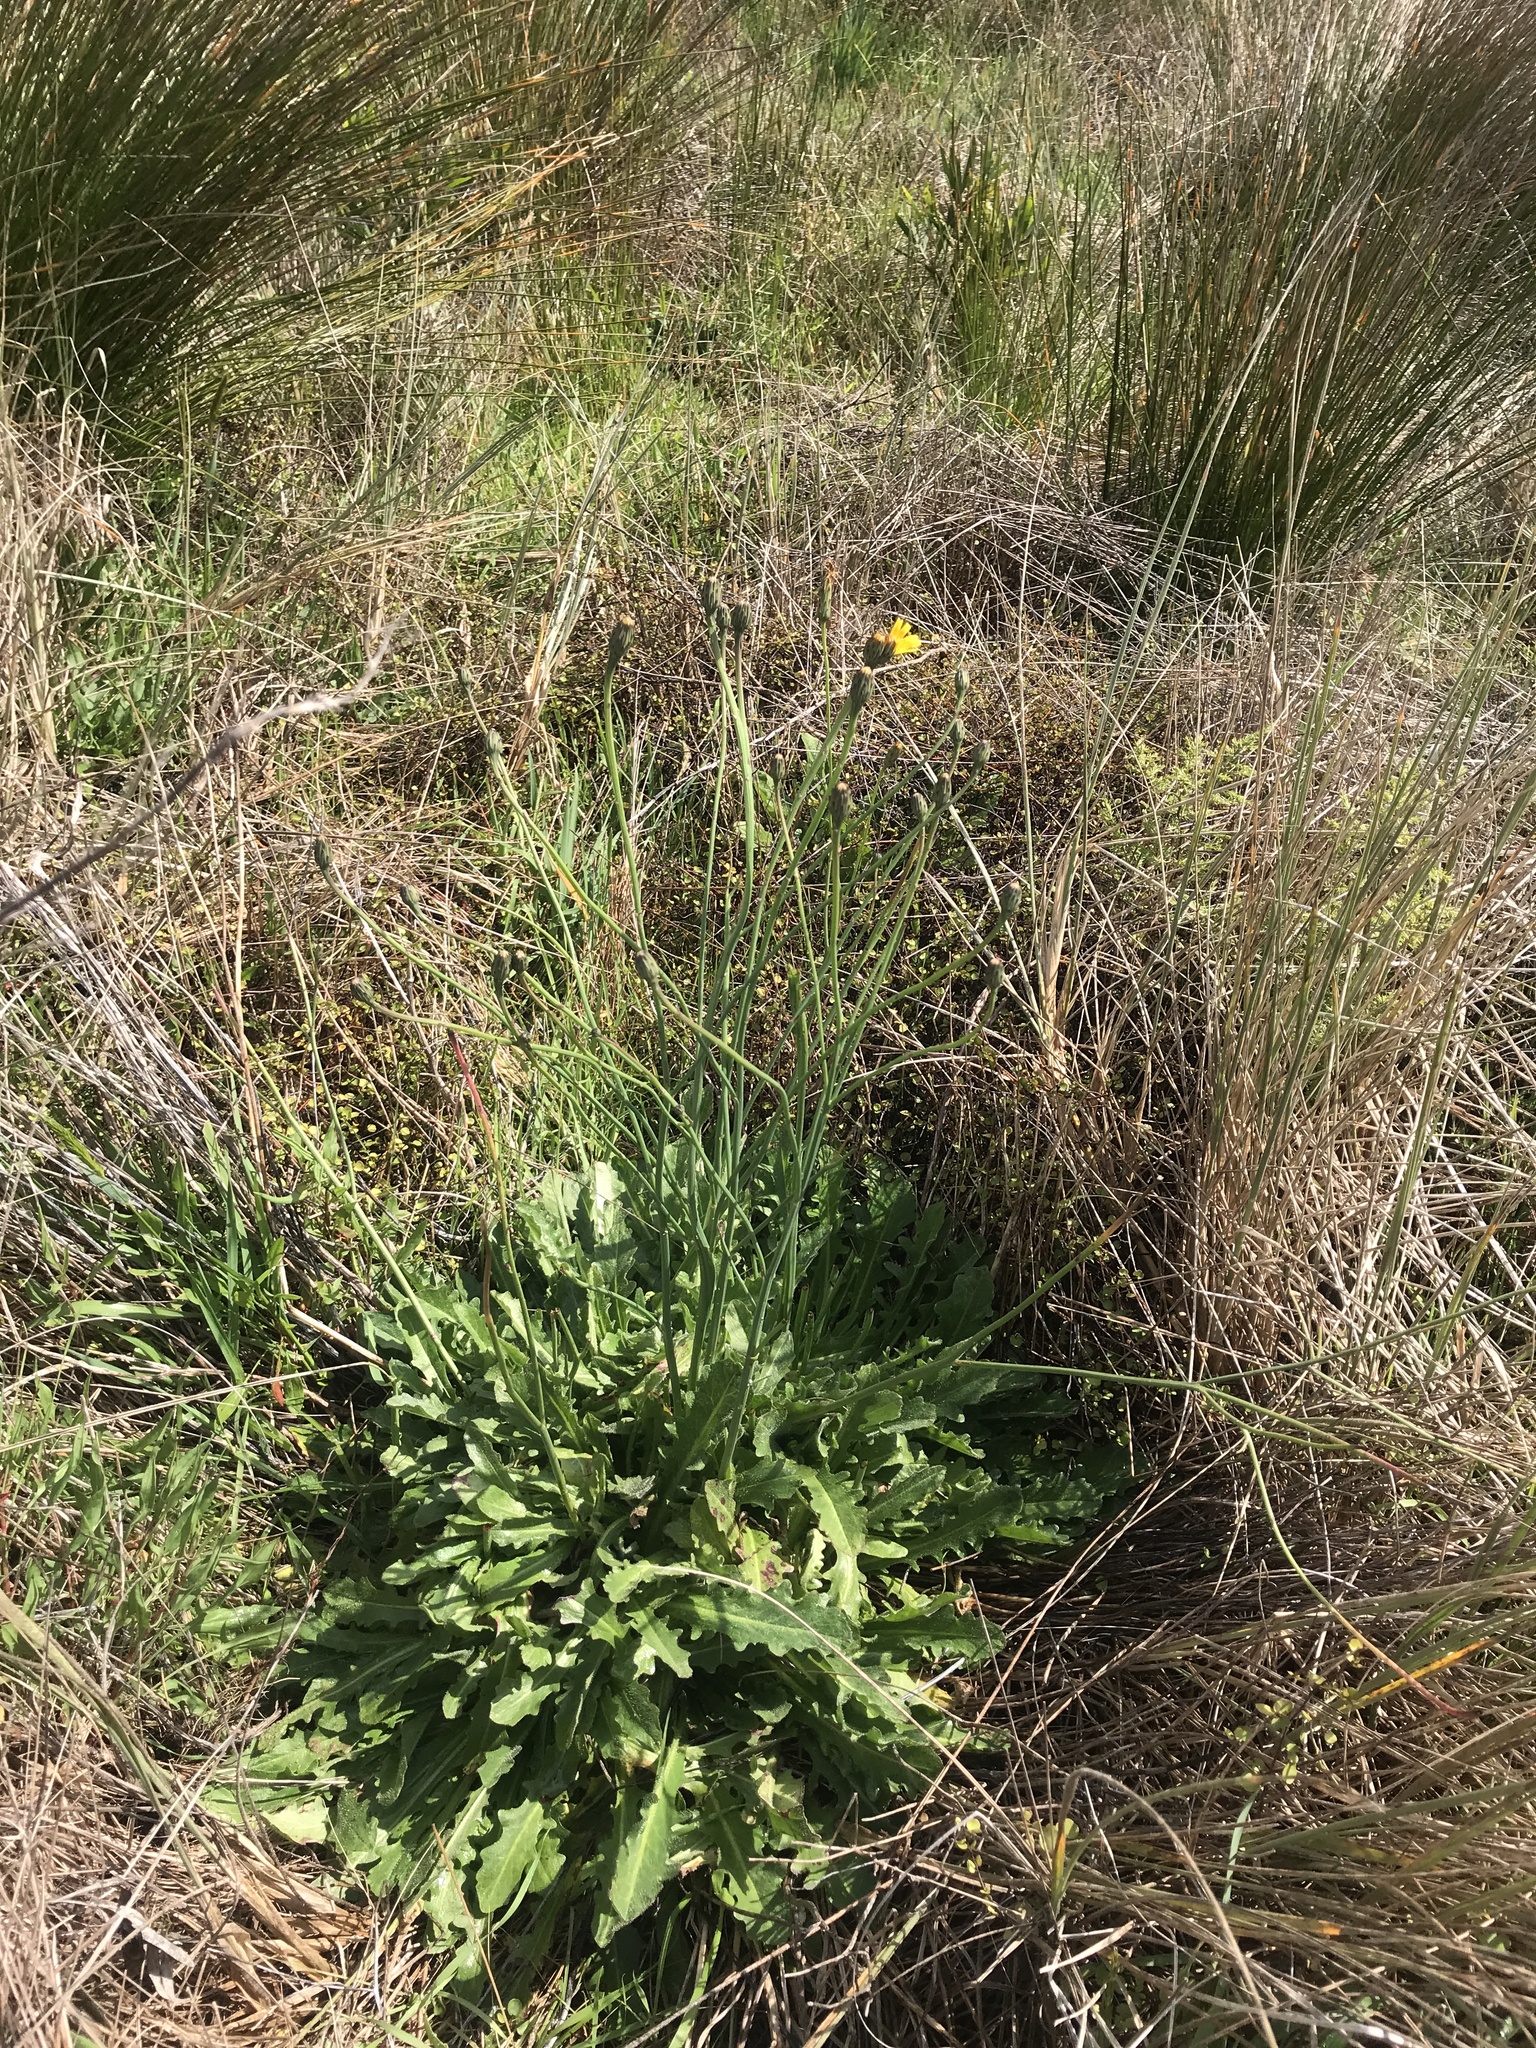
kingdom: Plantae
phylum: Tracheophyta
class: Magnoliopsida
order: Asterales
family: Asteraceae
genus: Hypochaeris
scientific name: Hypochaeris radicata
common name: Flatweed
